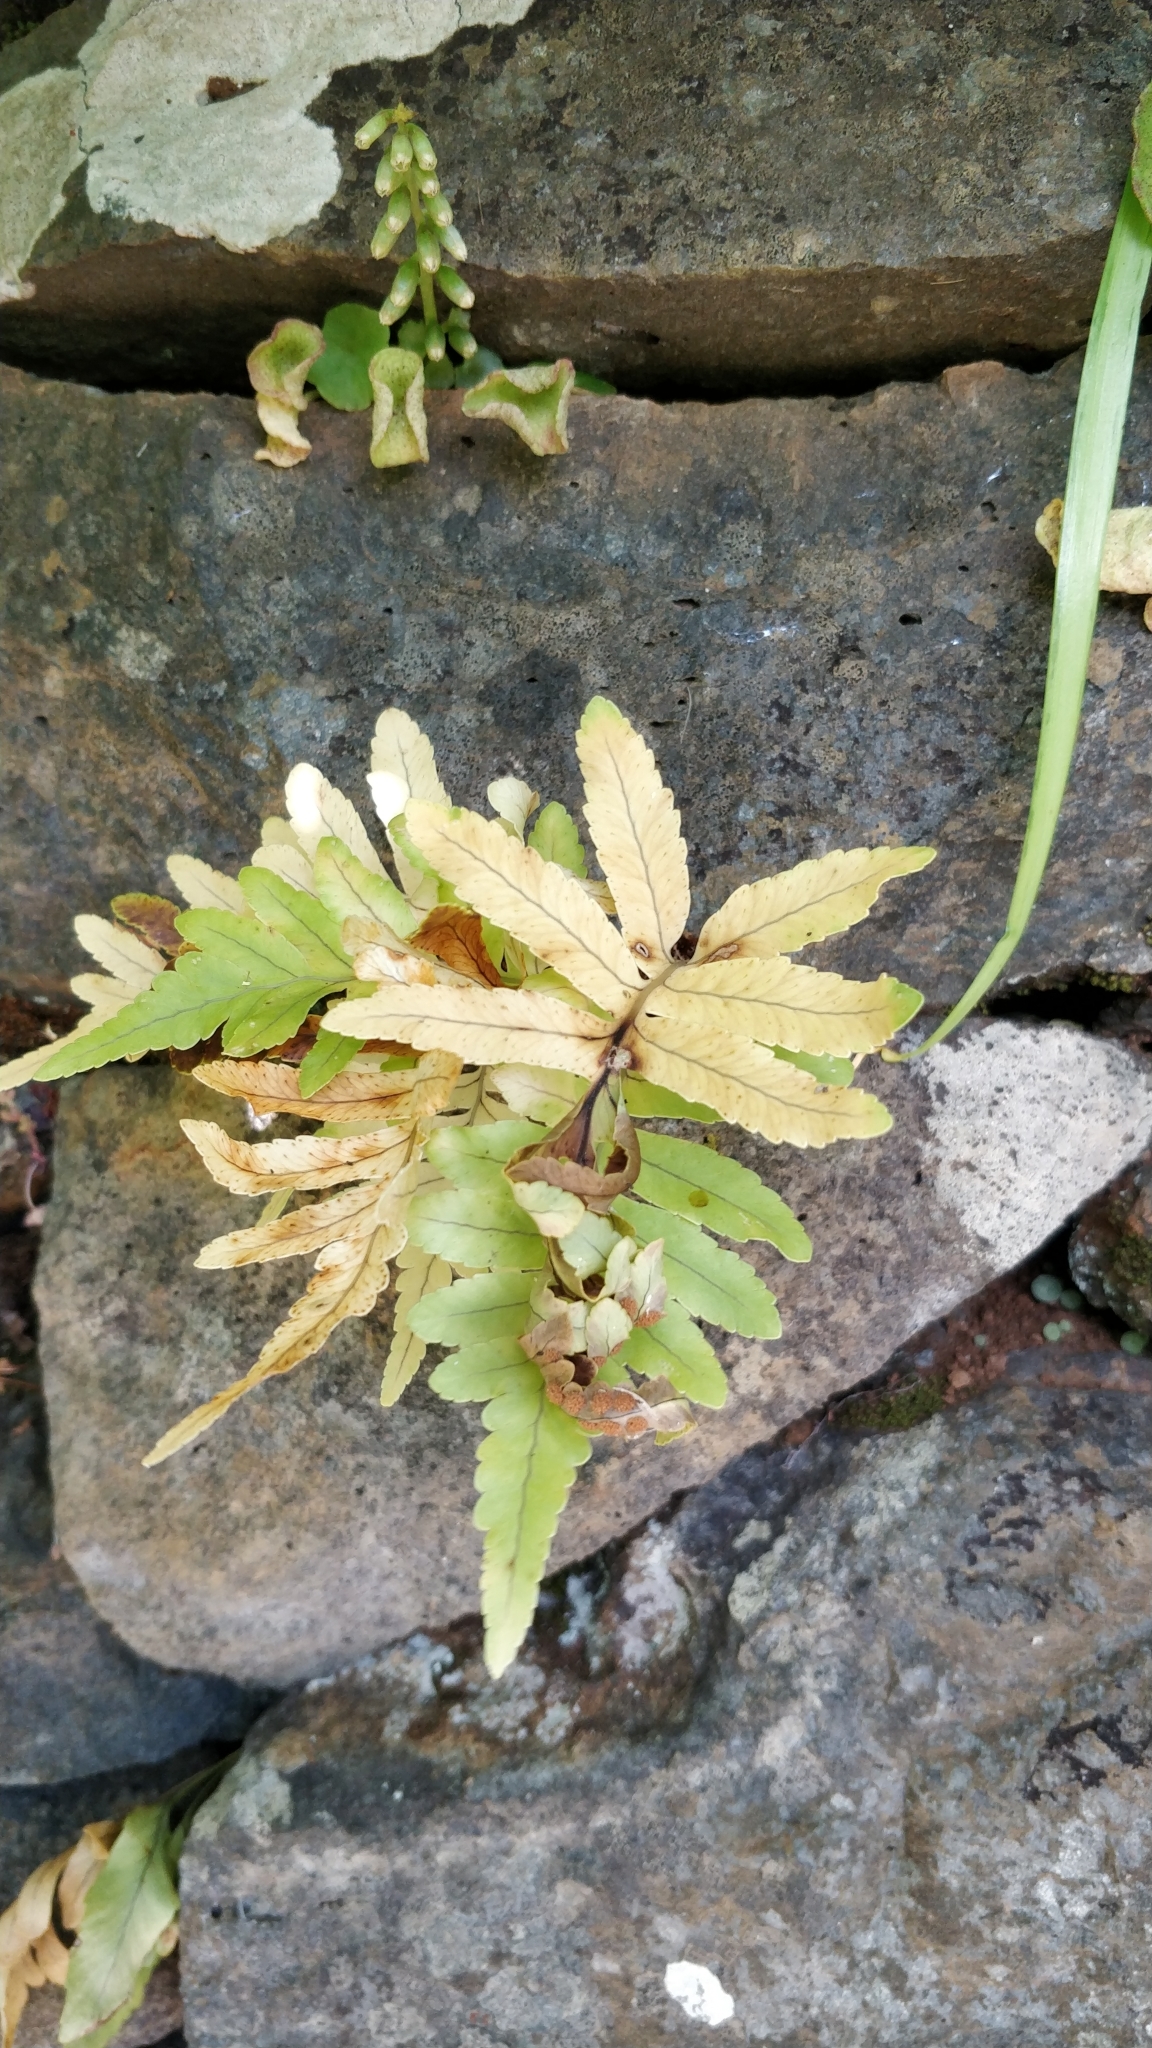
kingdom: Plantae
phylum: Tracheophyta
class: Polypodiopsida
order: Polypodiales
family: Polypodiaceae
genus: Polypodium
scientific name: Polypodium macaronesicum
